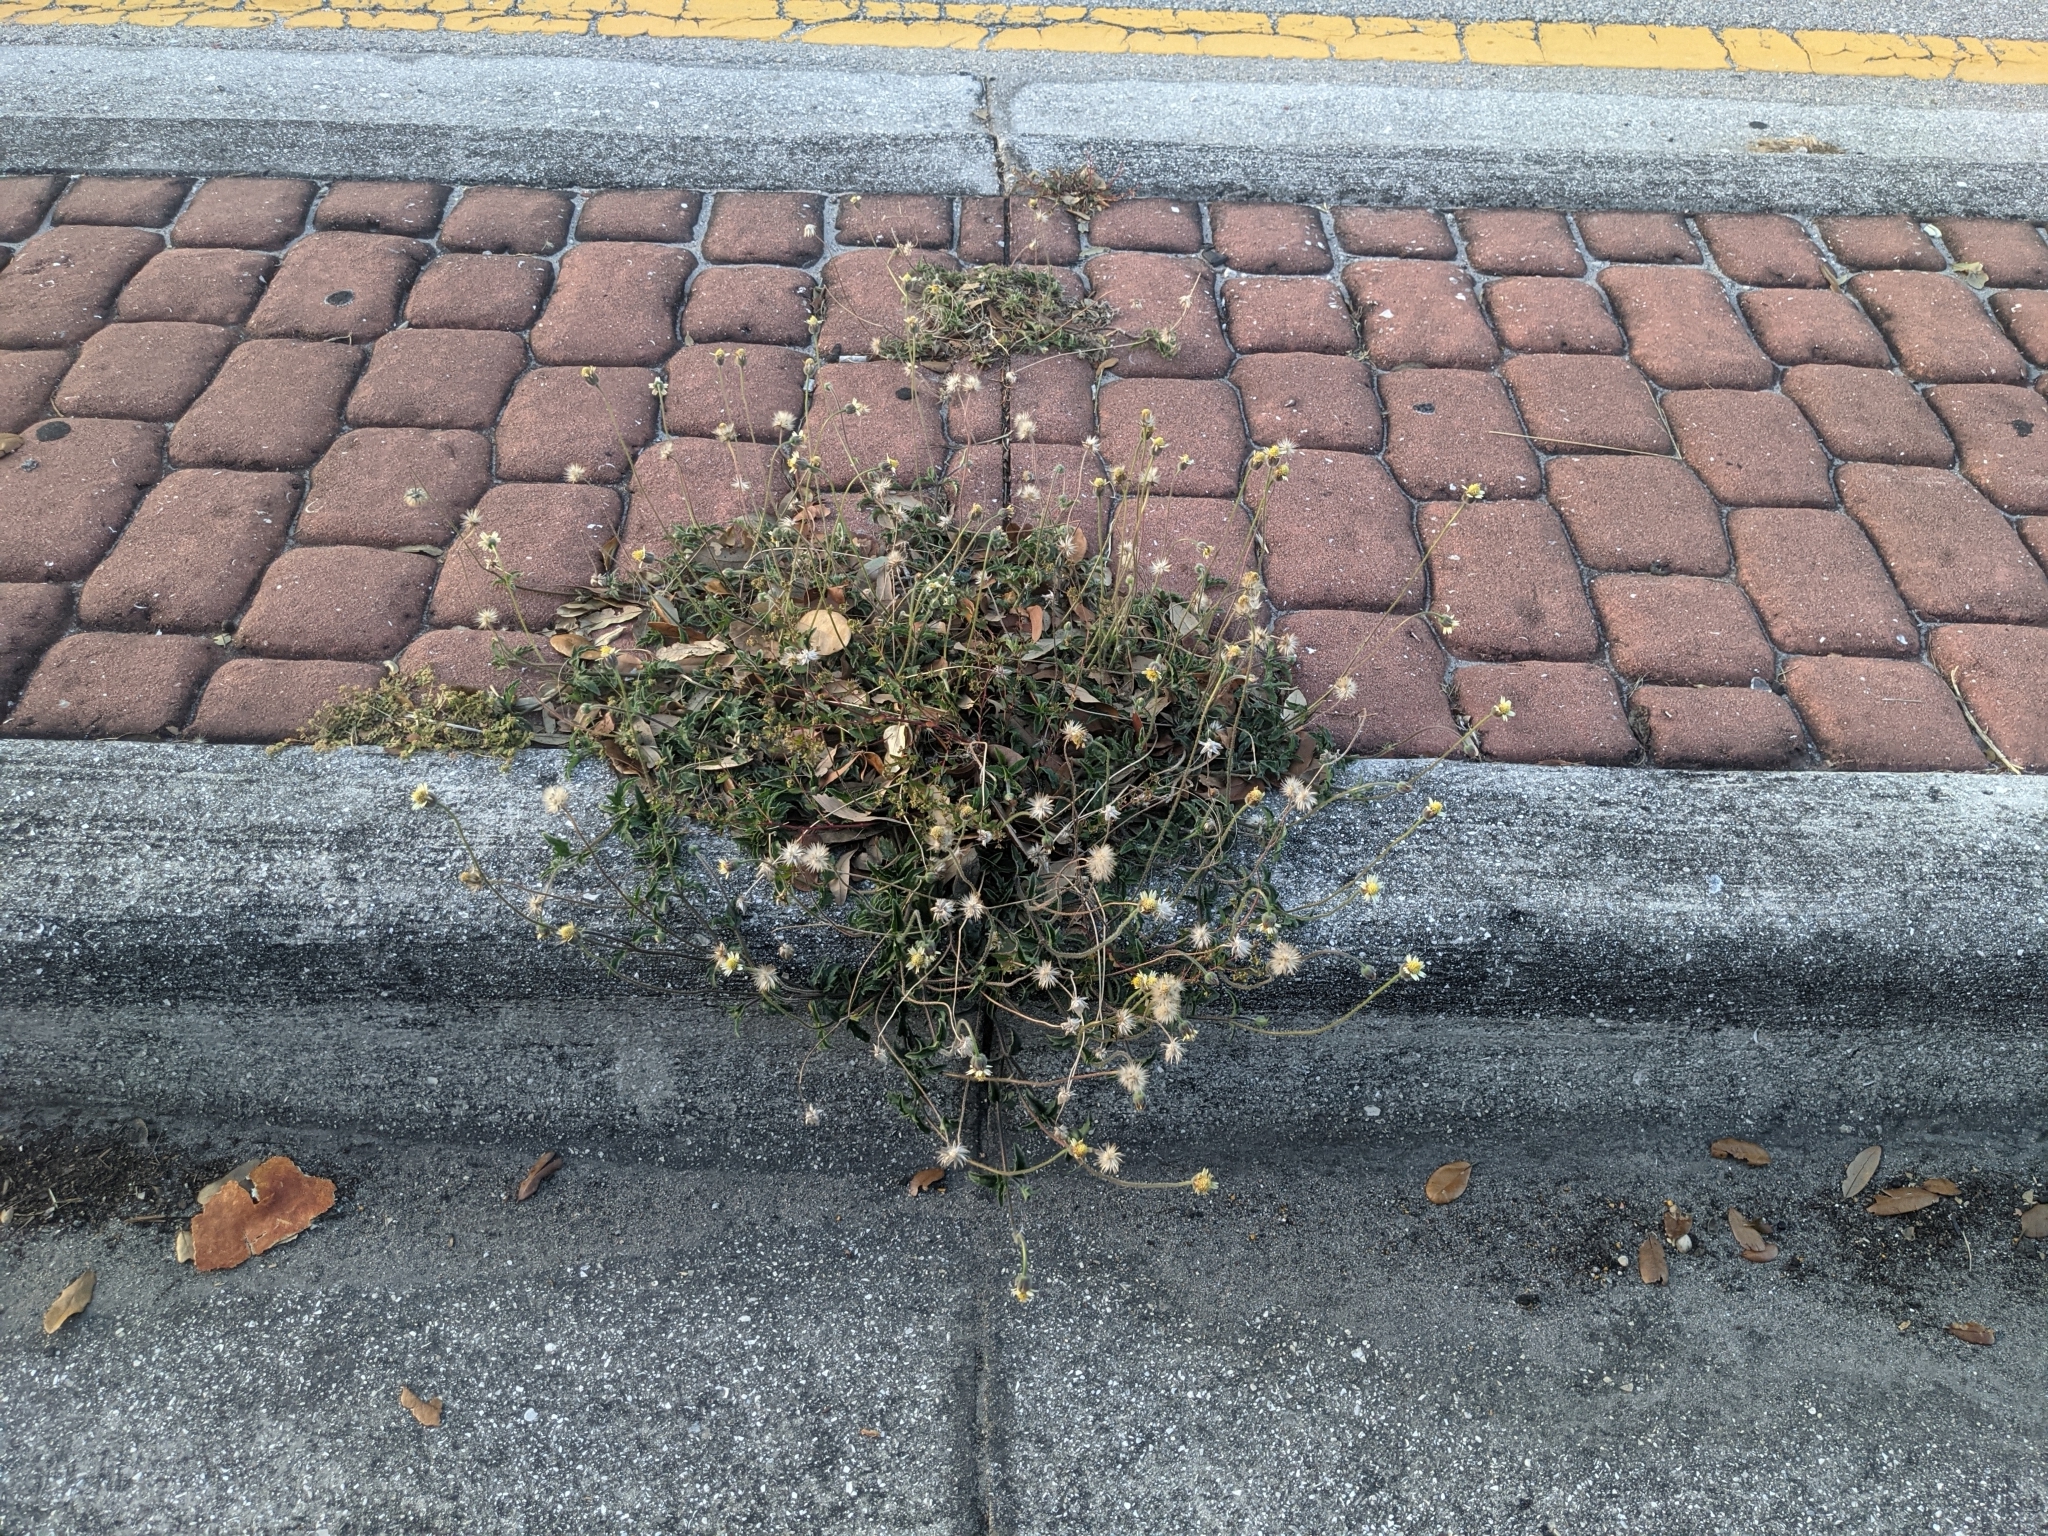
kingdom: Plantae
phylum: Tracheophyta
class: Magnoliopsida
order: Asterales
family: Asteraceae
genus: Tridax
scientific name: Tridax procumbens
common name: Coatbuttons
